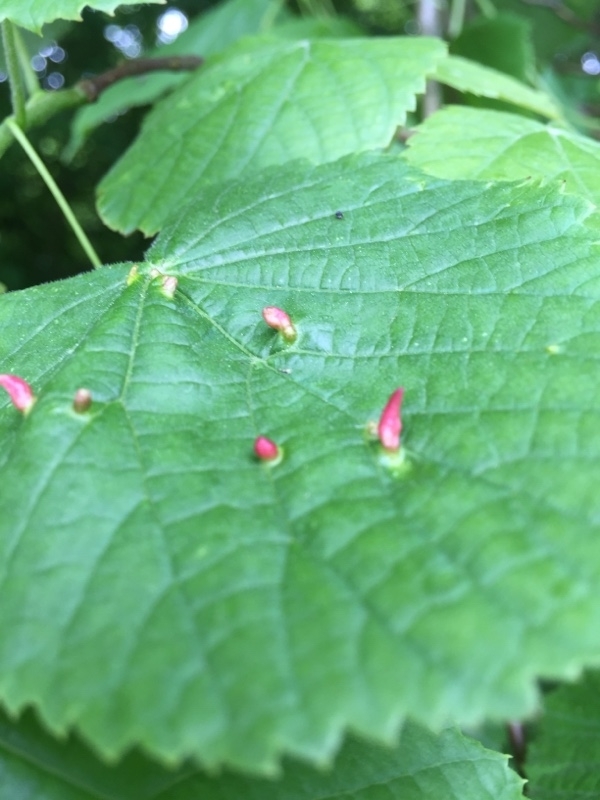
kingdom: Animalia
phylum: Arthropoda
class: Arachnida
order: Trombidiformes
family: Eriophyidae
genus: Eriophyes
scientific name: Eriophyes tiliae
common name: Red nail gall mite
